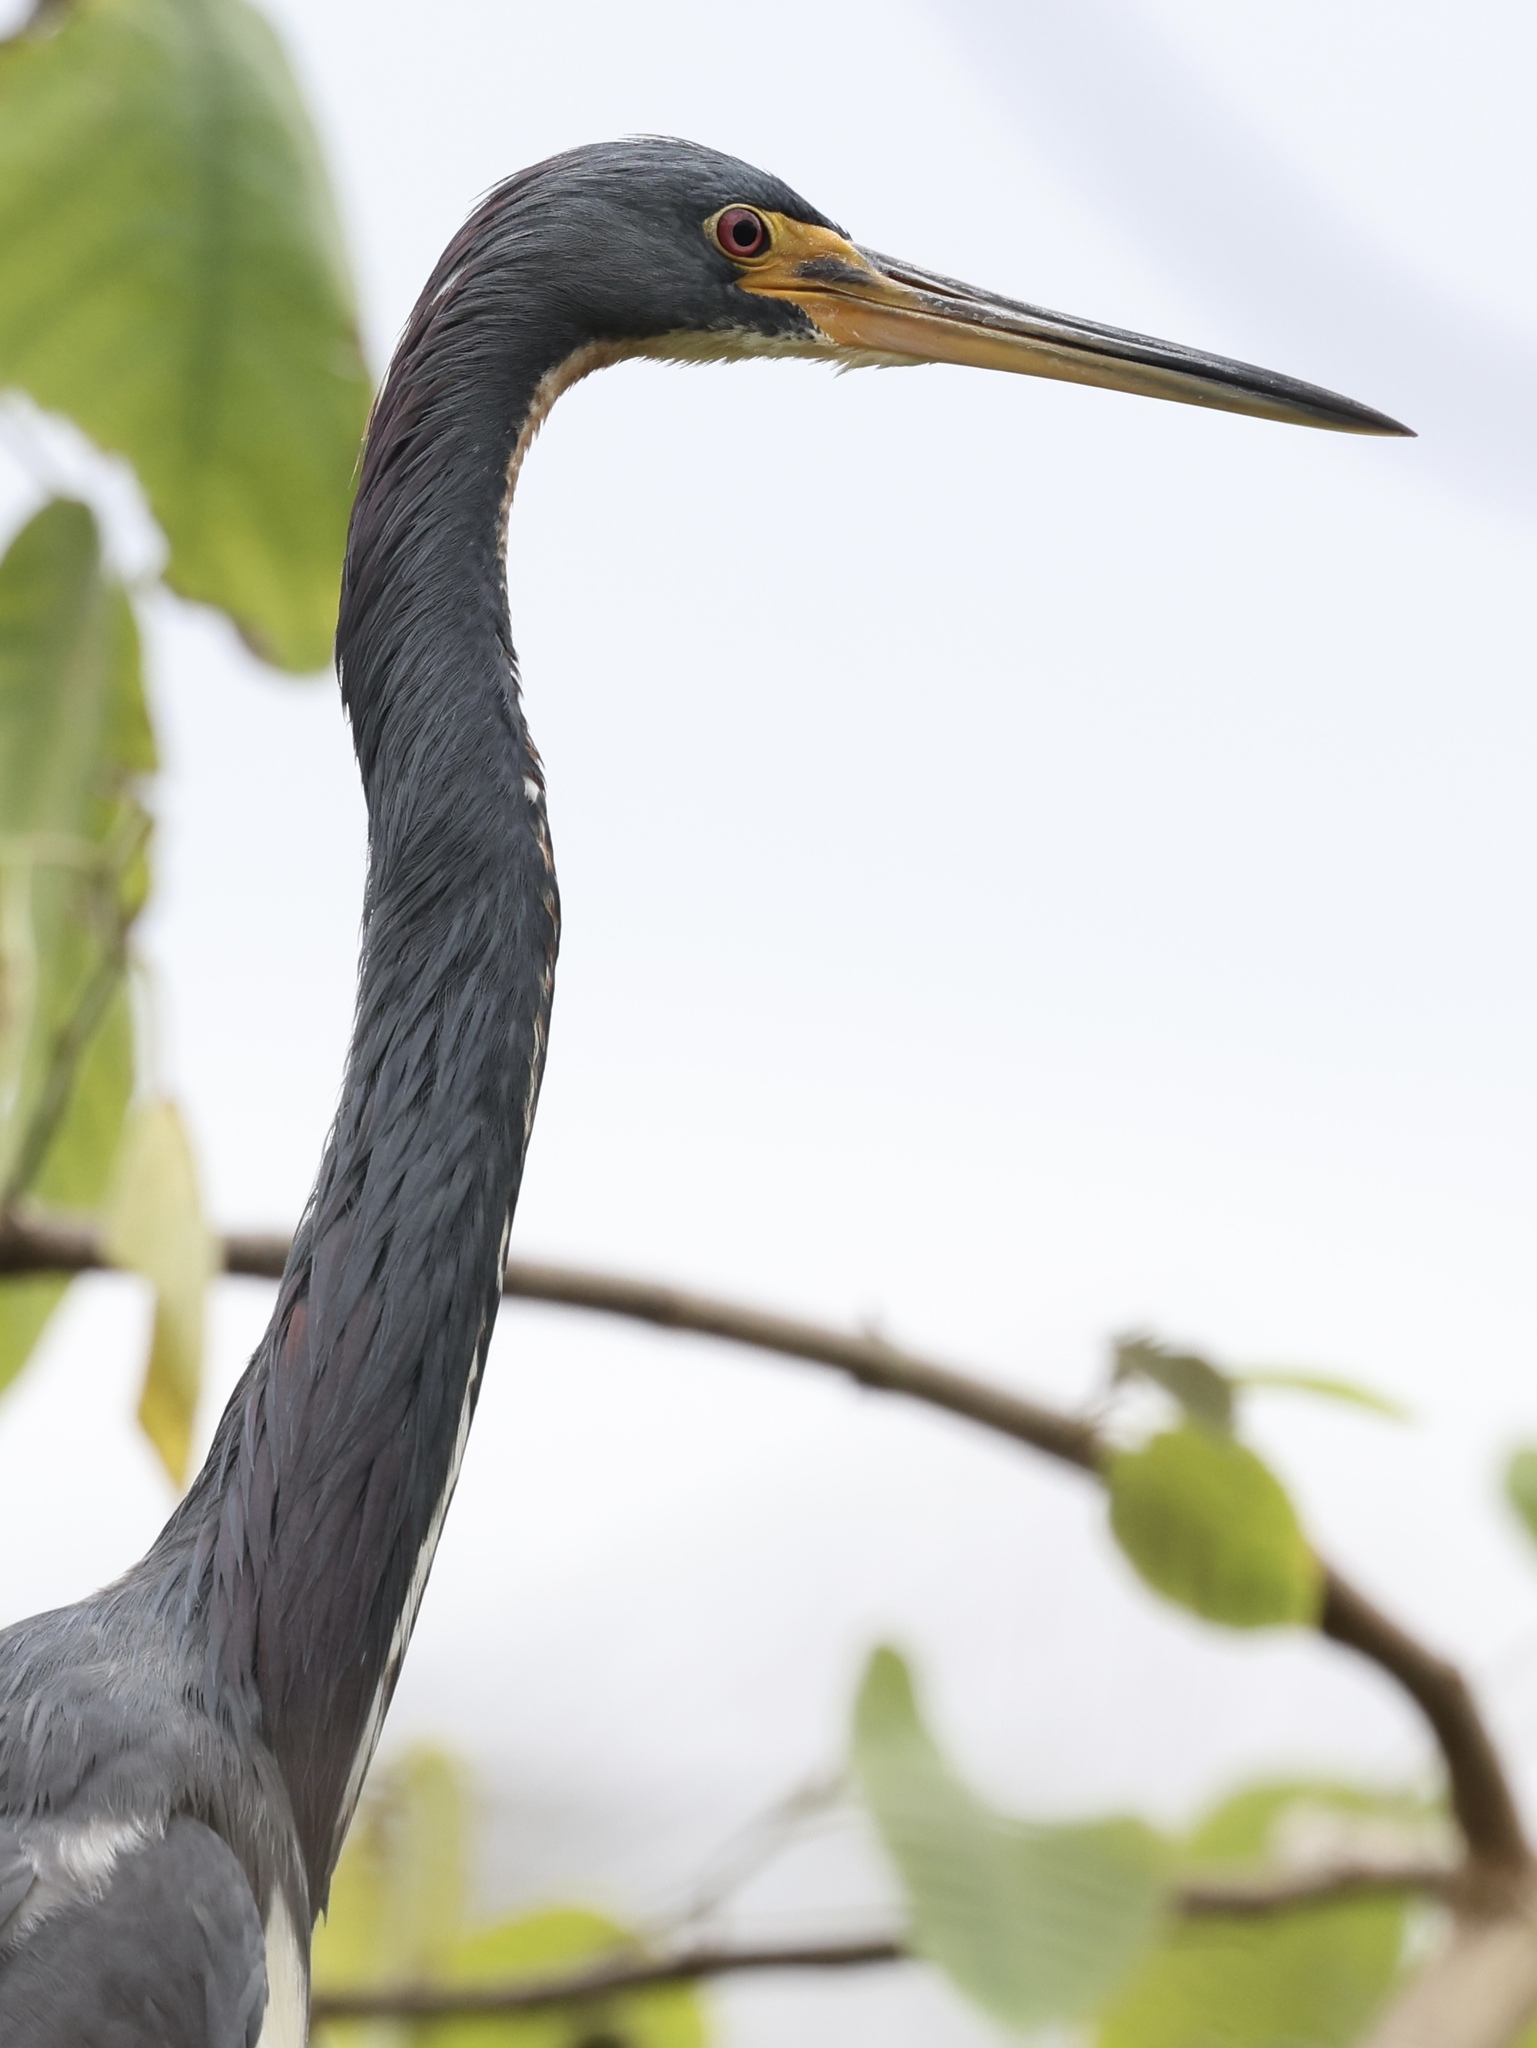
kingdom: Animalia
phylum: Chordata
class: Aves
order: Pelecaniformes
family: Ardeidae
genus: Egretta
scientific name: Egretta tricolor
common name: Tricolored heron
